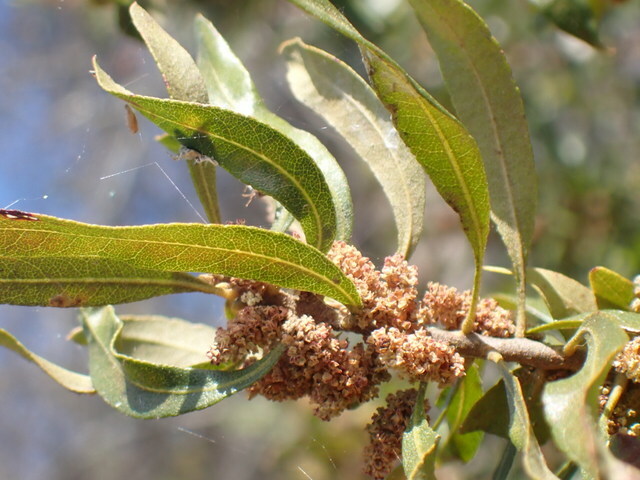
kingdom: Plantae
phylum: Tracheophyta
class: Magnoliopsida
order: Fagales
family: Myricaceae
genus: Morella
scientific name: Morella cerifera
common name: Wax myrtle
